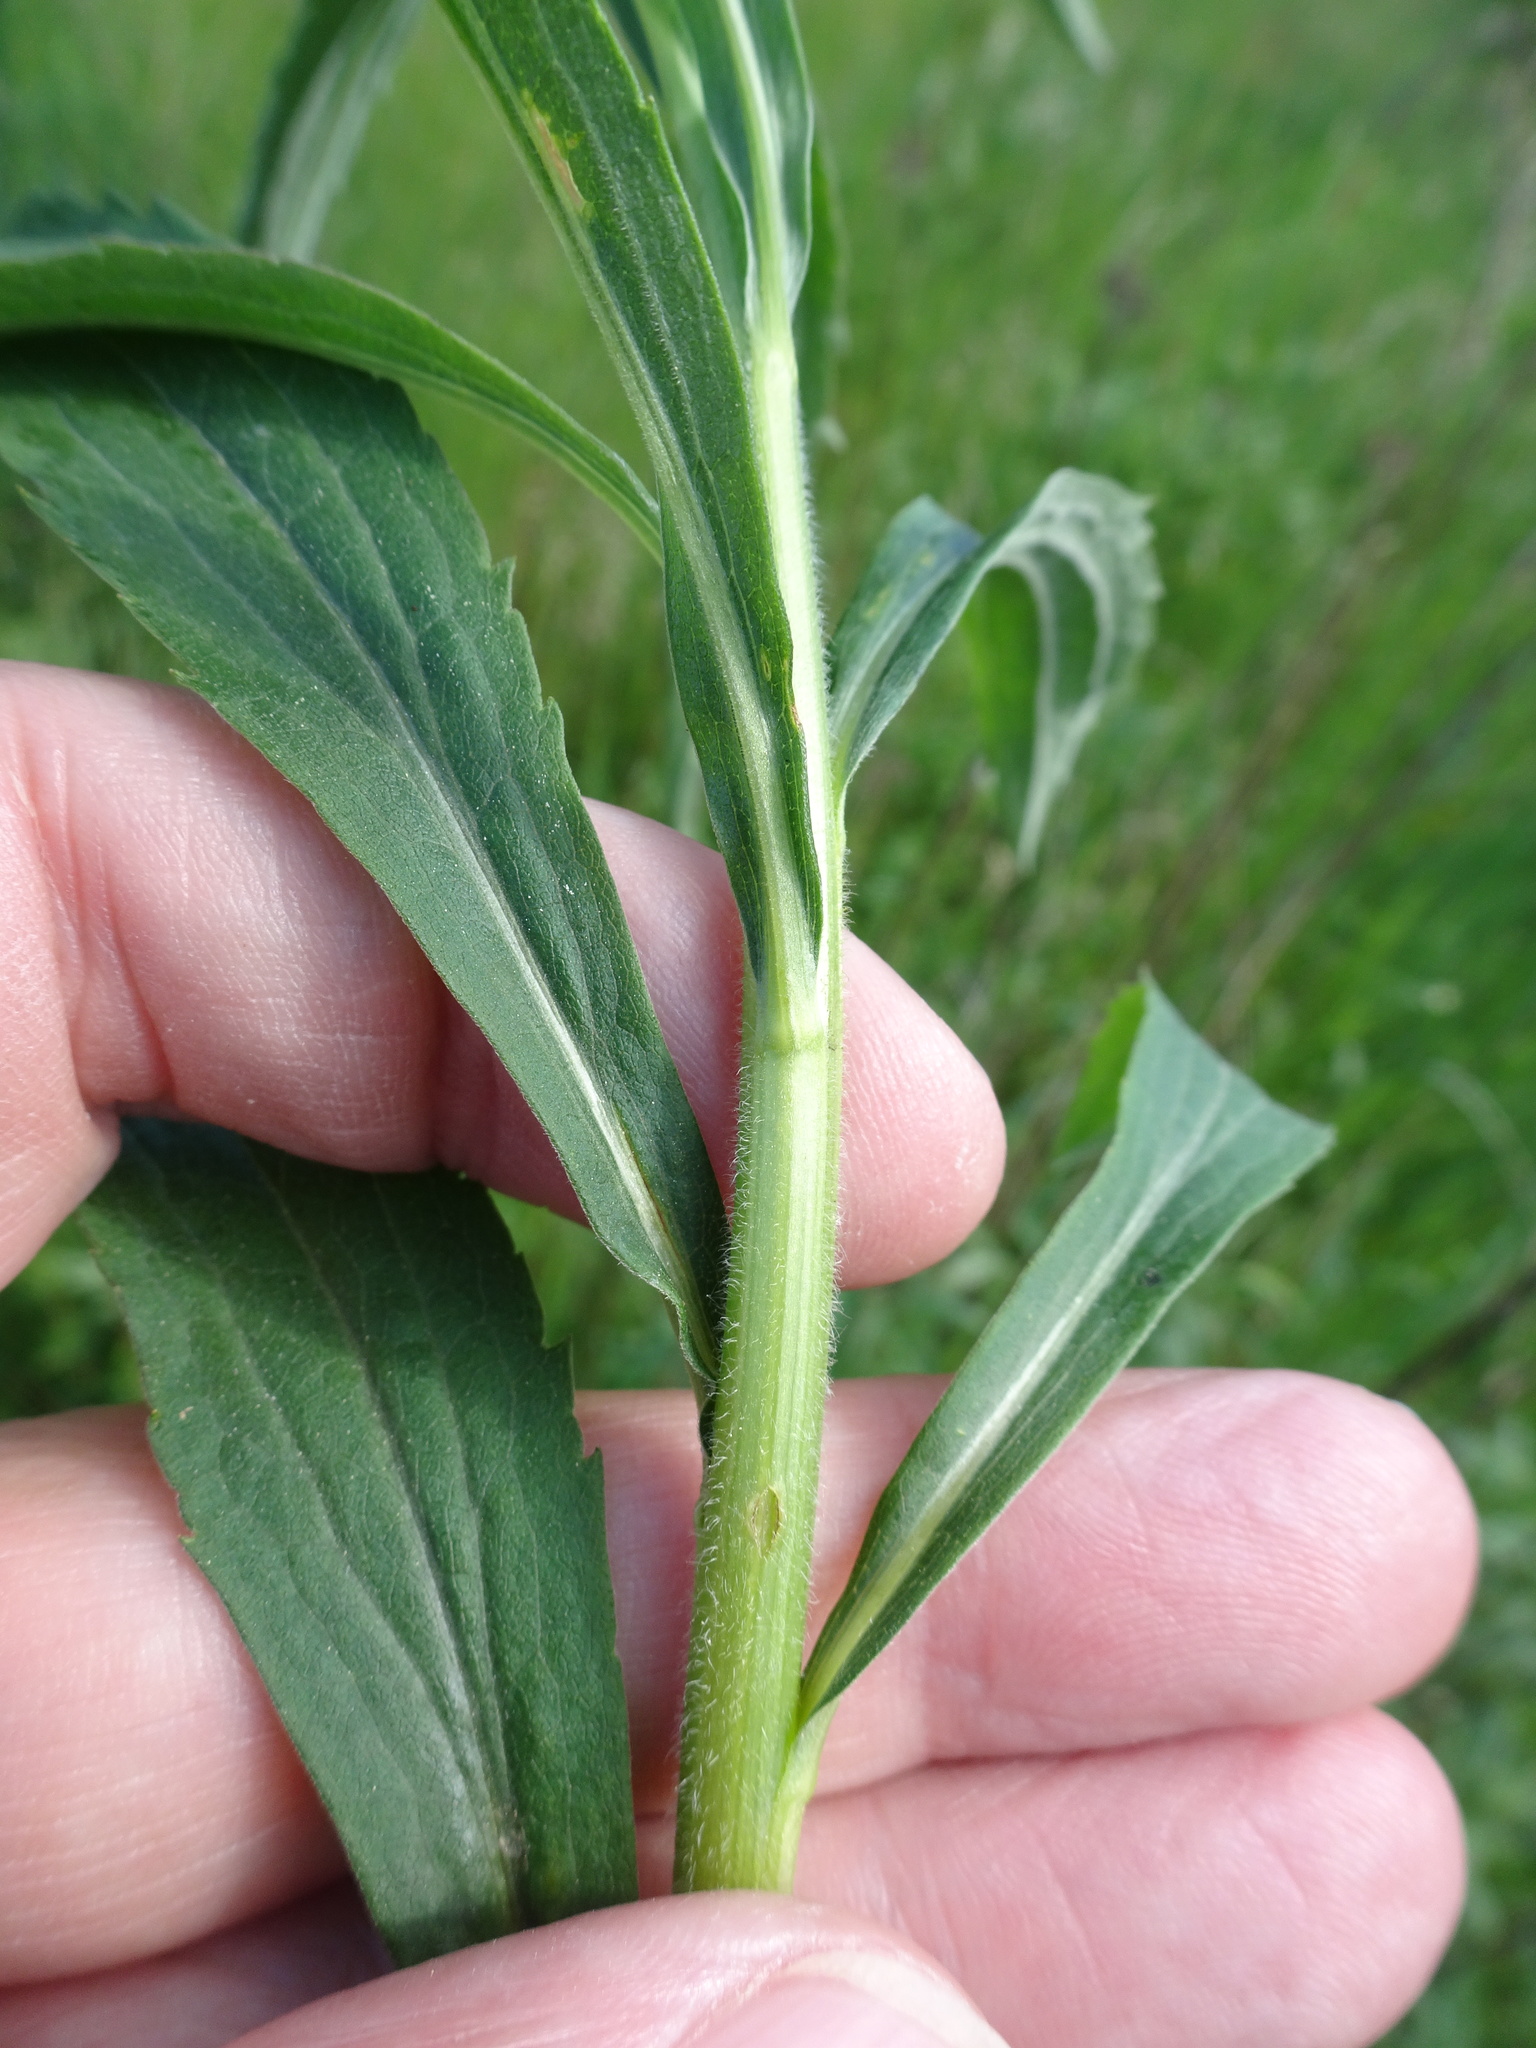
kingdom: Plantae
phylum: Tracheophyta
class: Magnoliopsida
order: Asterales
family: Asteraceae
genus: Solidago
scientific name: Solidago canadensis
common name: Canada goldenrod
